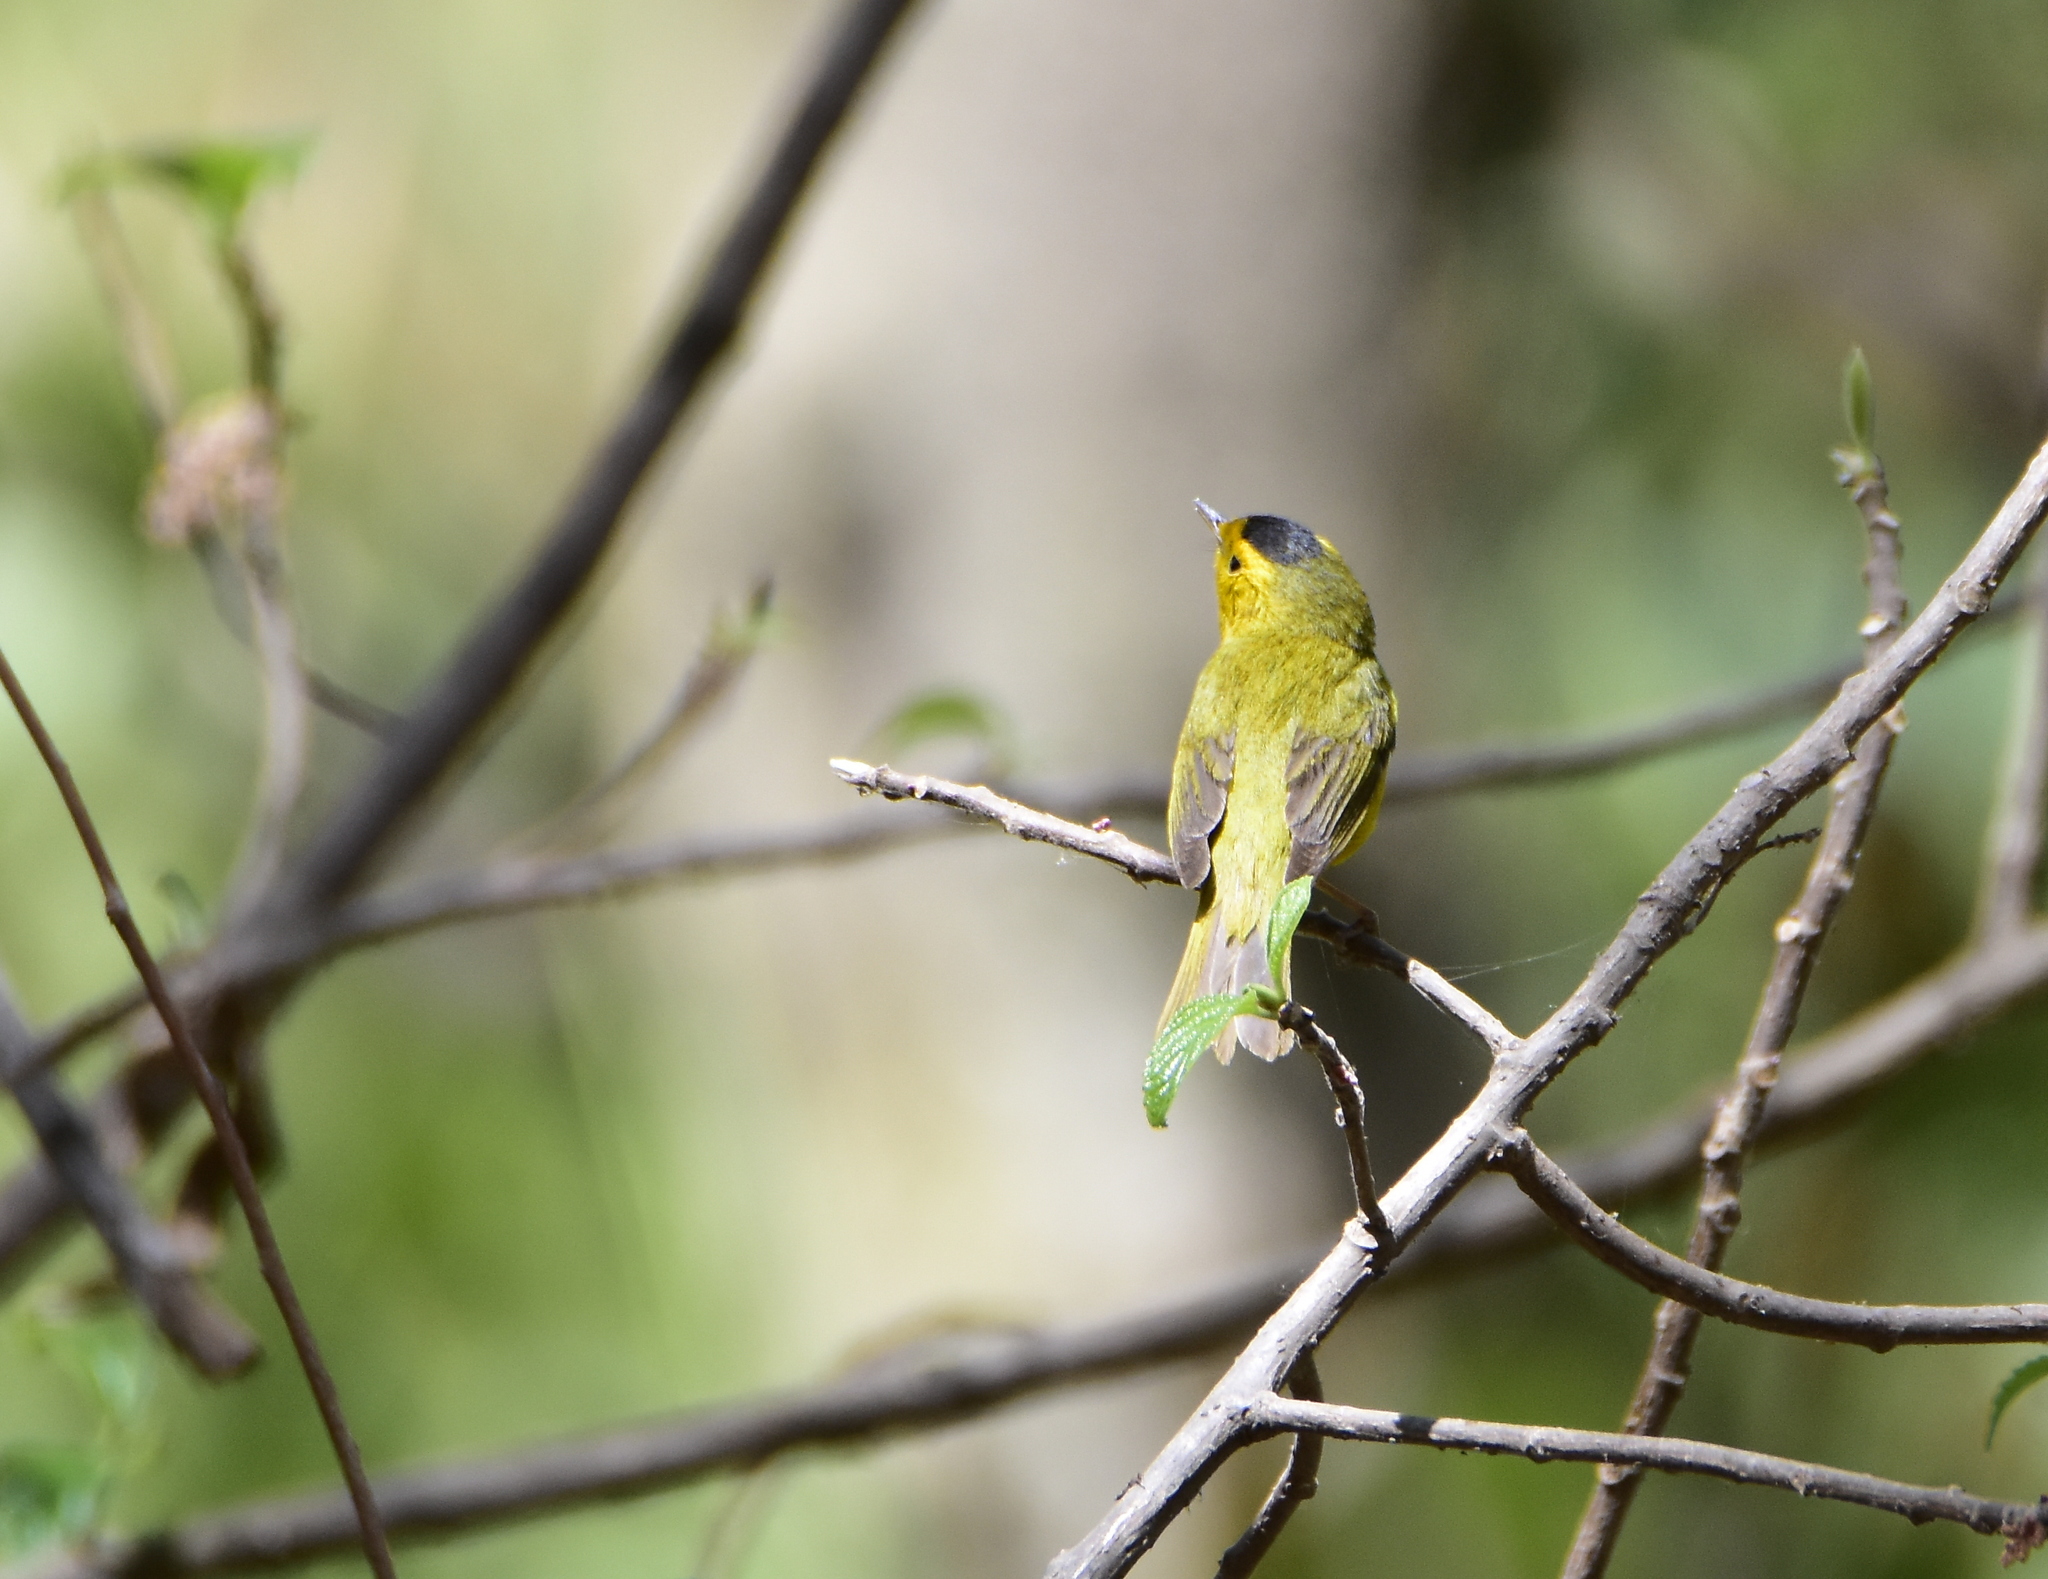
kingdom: Animalia
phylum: Chordata
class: Aves
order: Passeriformes
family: Parulidae
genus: Cardellina
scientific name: Cardellina pusilla
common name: Wilson's warbler
